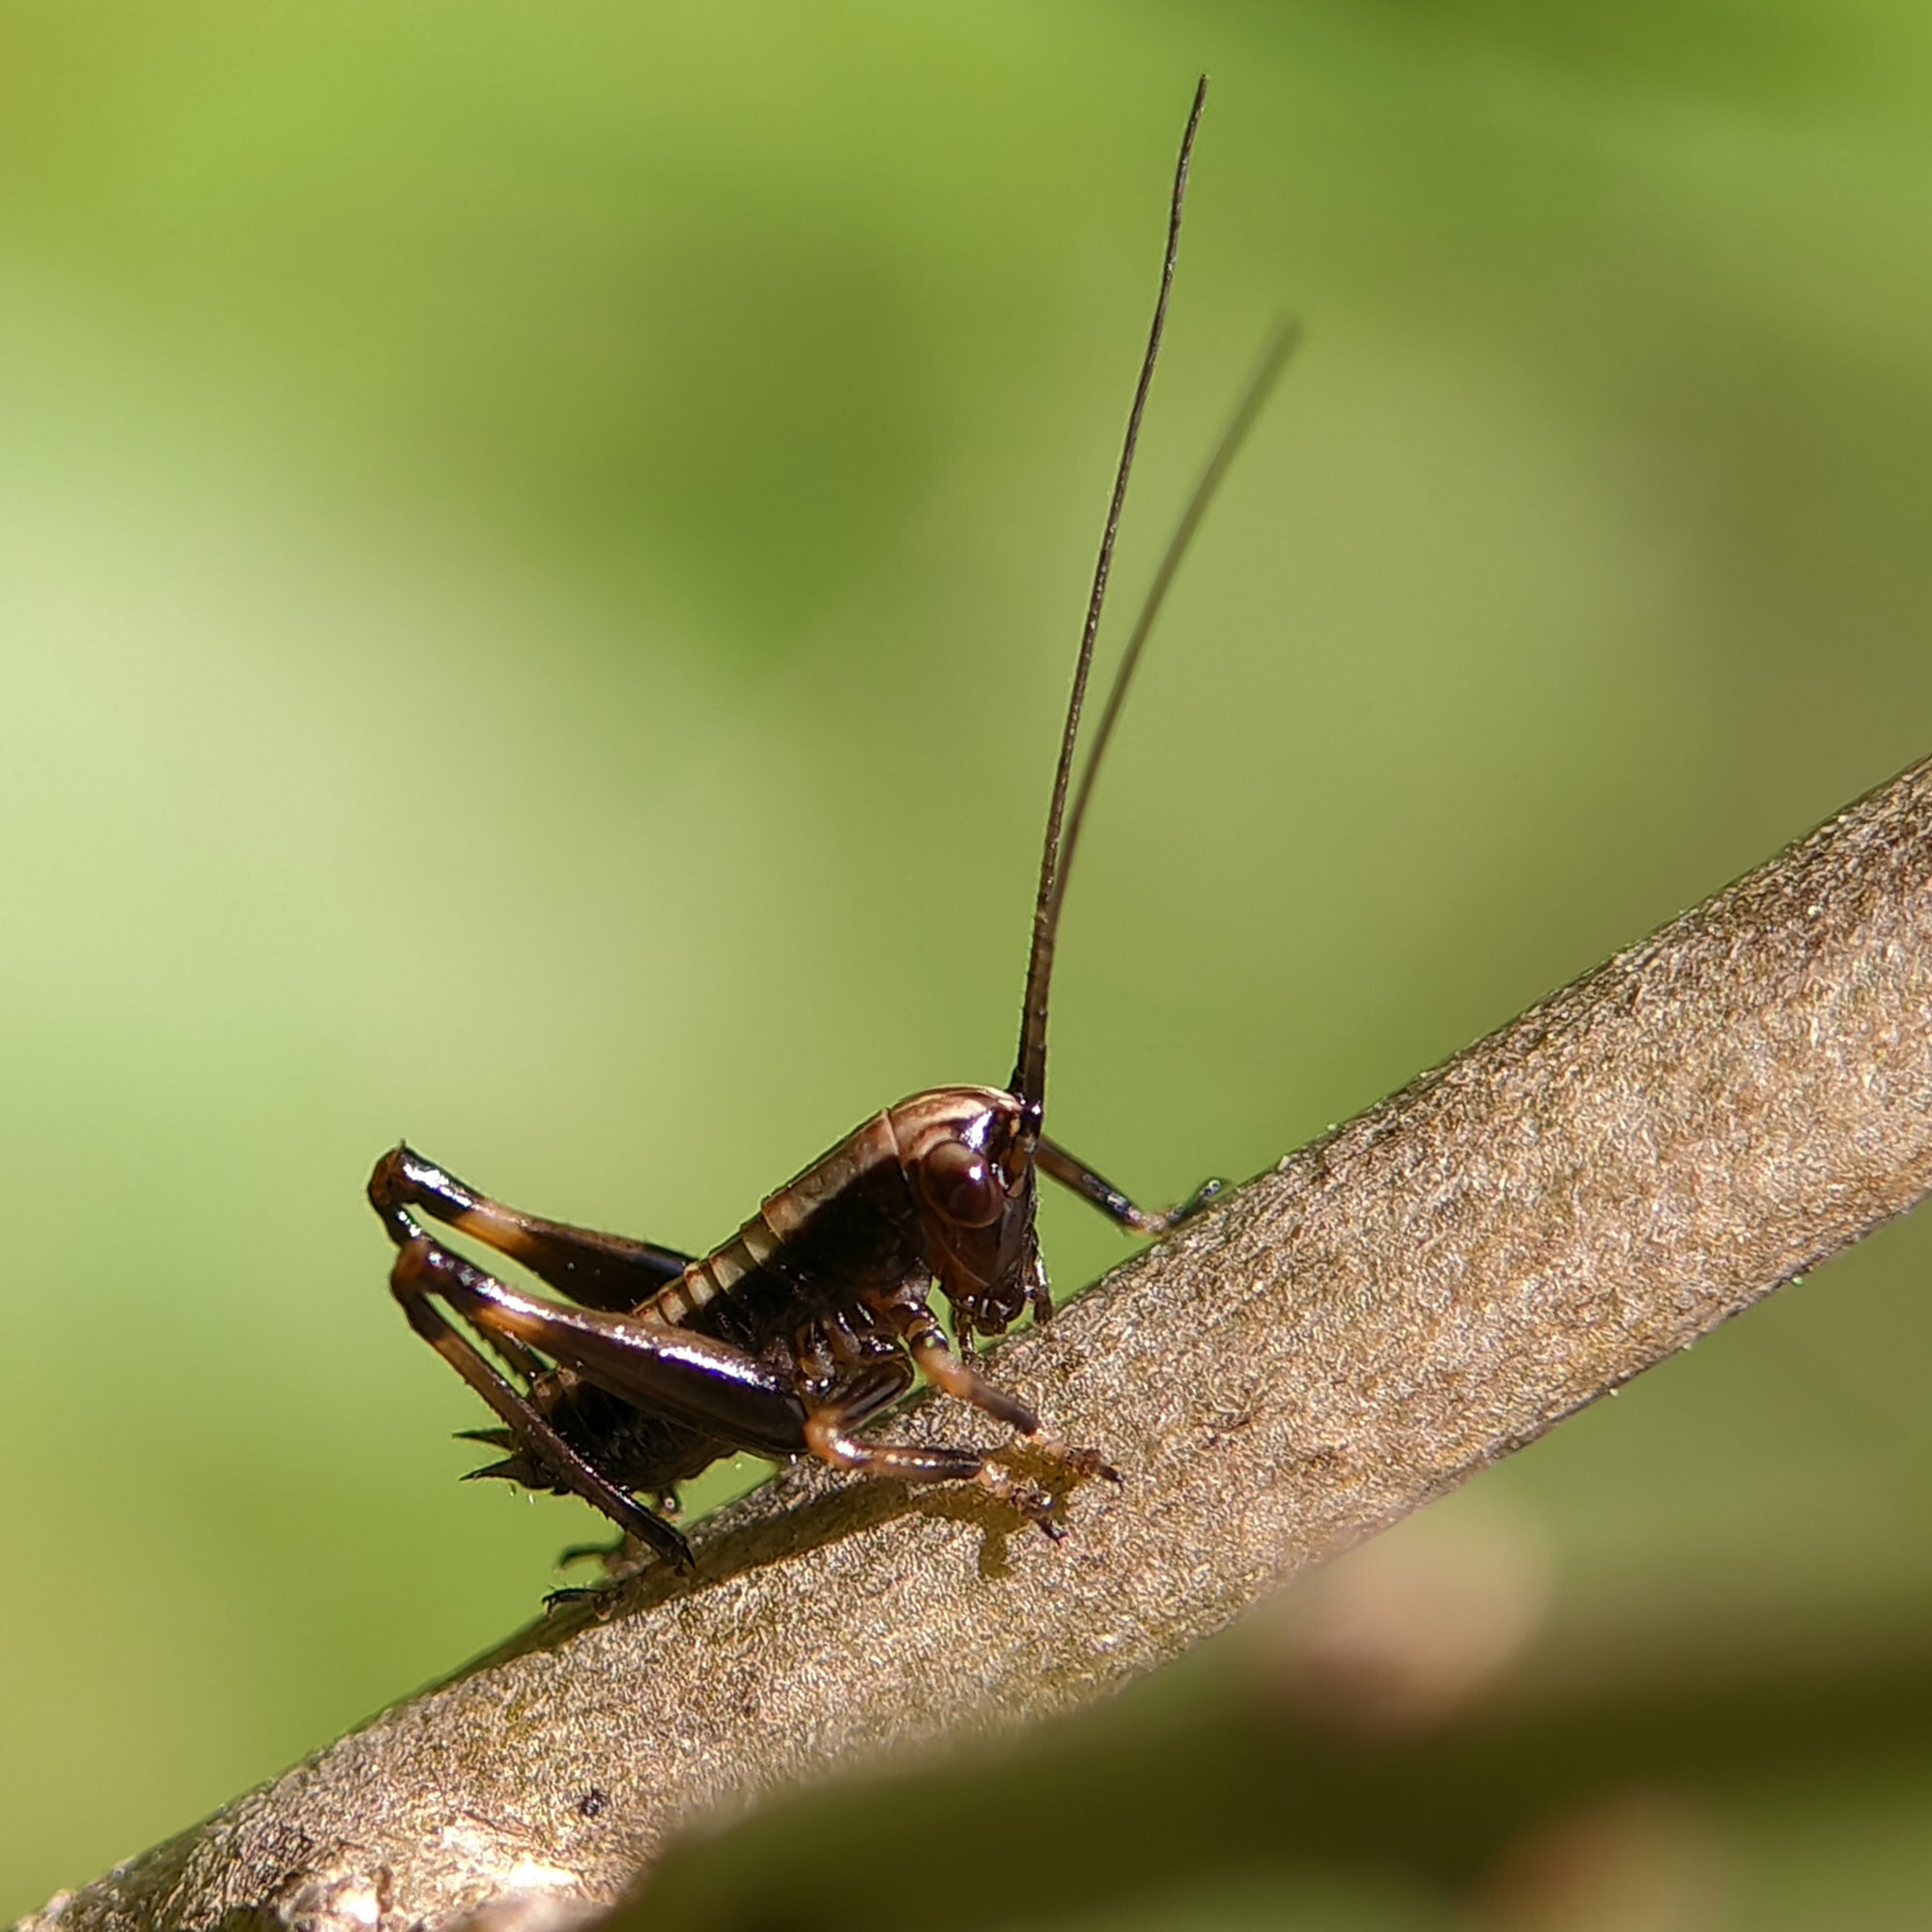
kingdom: Animalia
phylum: Arthropoda
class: Insecta
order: Orthoptera
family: Tettigoniidae
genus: Pholidoptera
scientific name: Pholidoptera griseoaptera
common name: Dark bush-cricket
